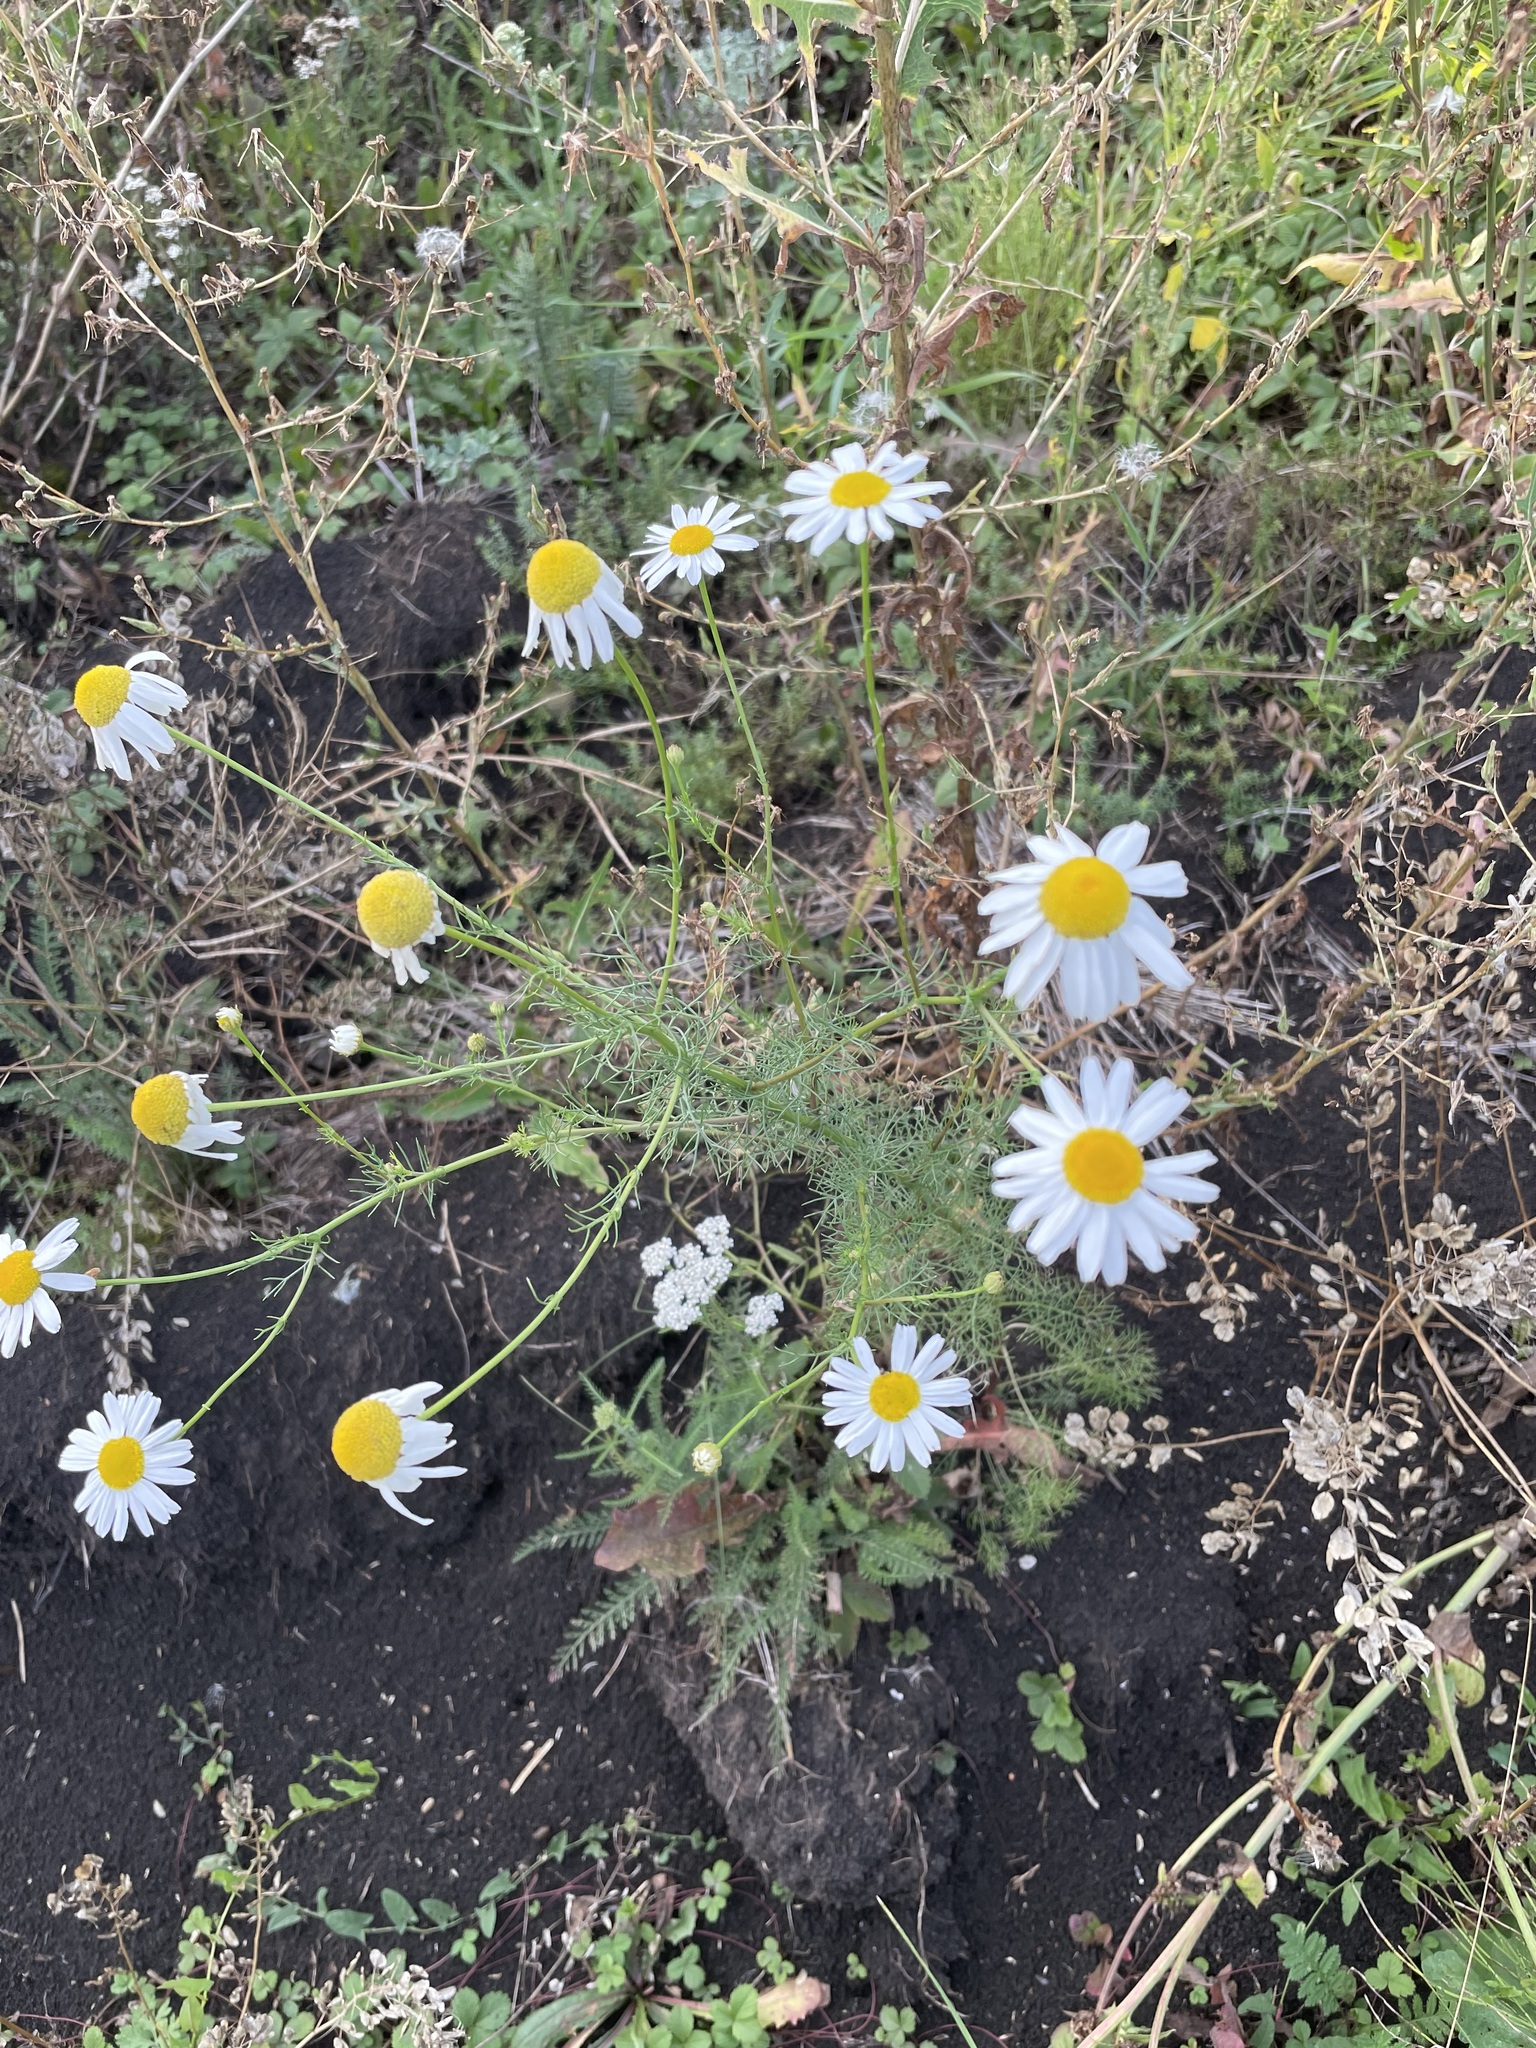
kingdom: Plantae
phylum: Tracheophyta
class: Magnoliopsida
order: Asterales
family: Asteraceae
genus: Tripleurospermum
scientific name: Tripleurospermum inodorum
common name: Scentless mayweed
